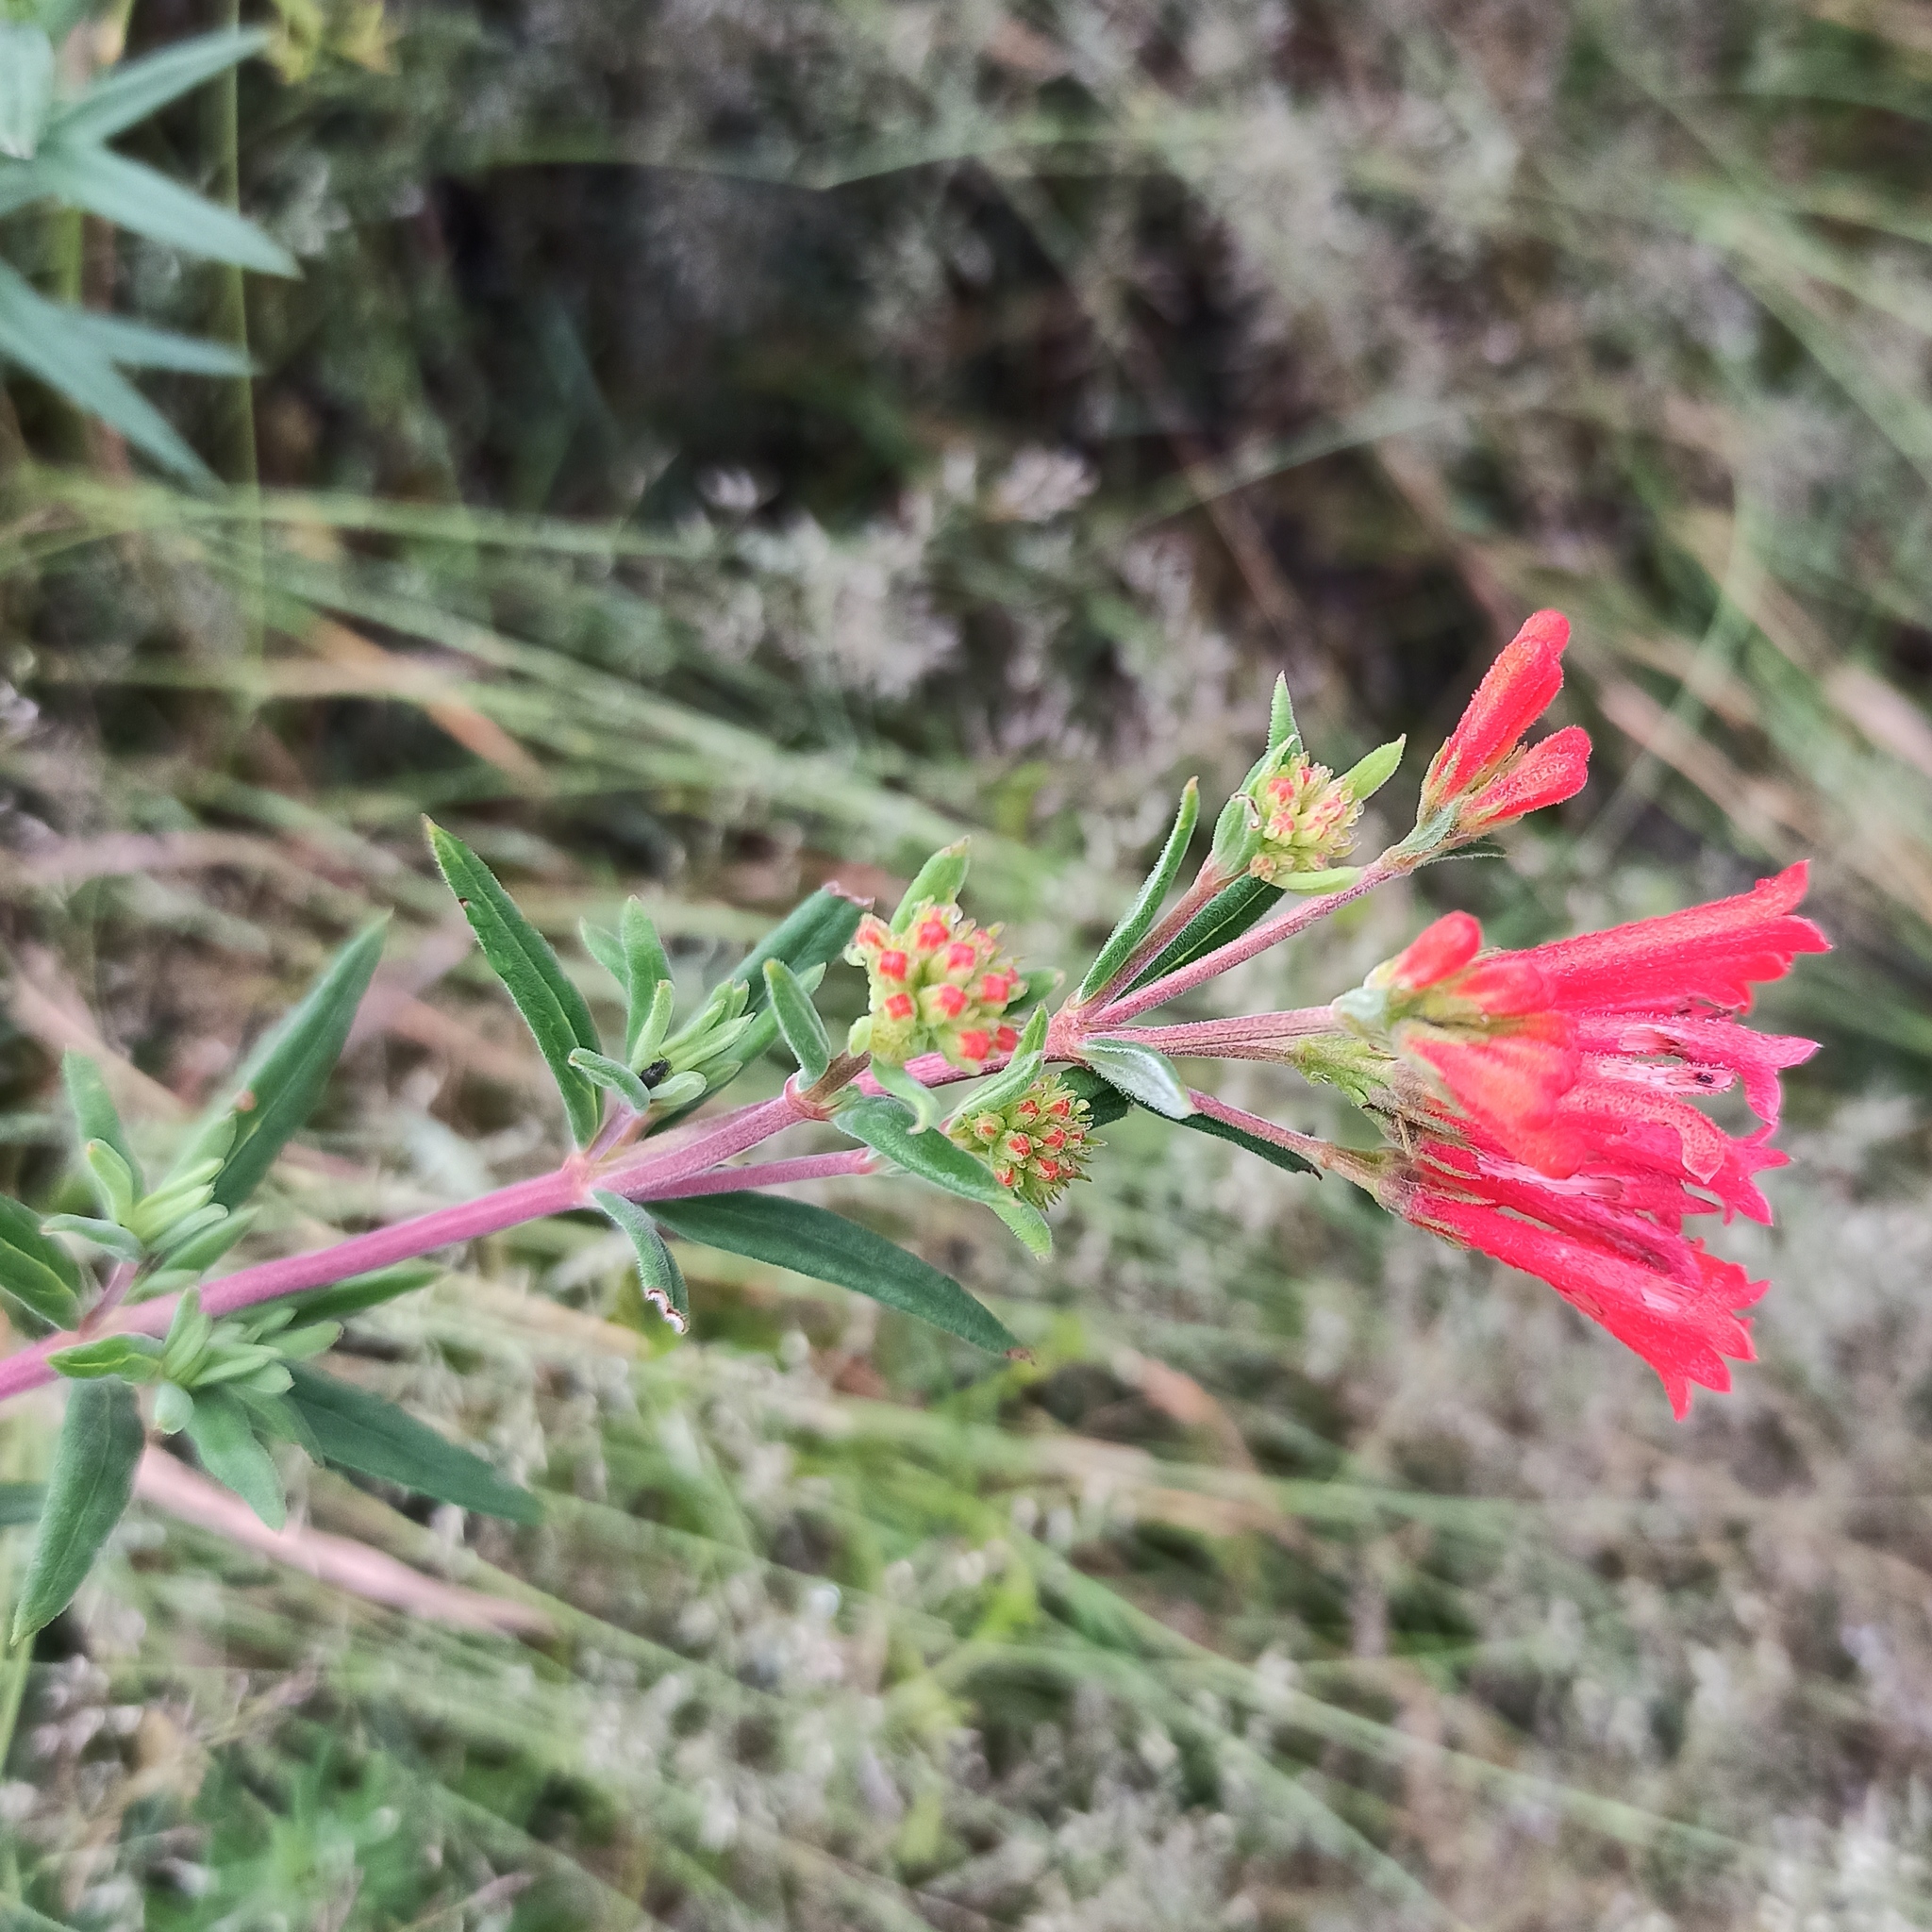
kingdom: Plantae
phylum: Tracheophyta
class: Magnoliopsida
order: Gentianales
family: Rubiaceae
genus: Bouvardia
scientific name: Bouvardia ternifolia
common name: Scarlet bouvardia
